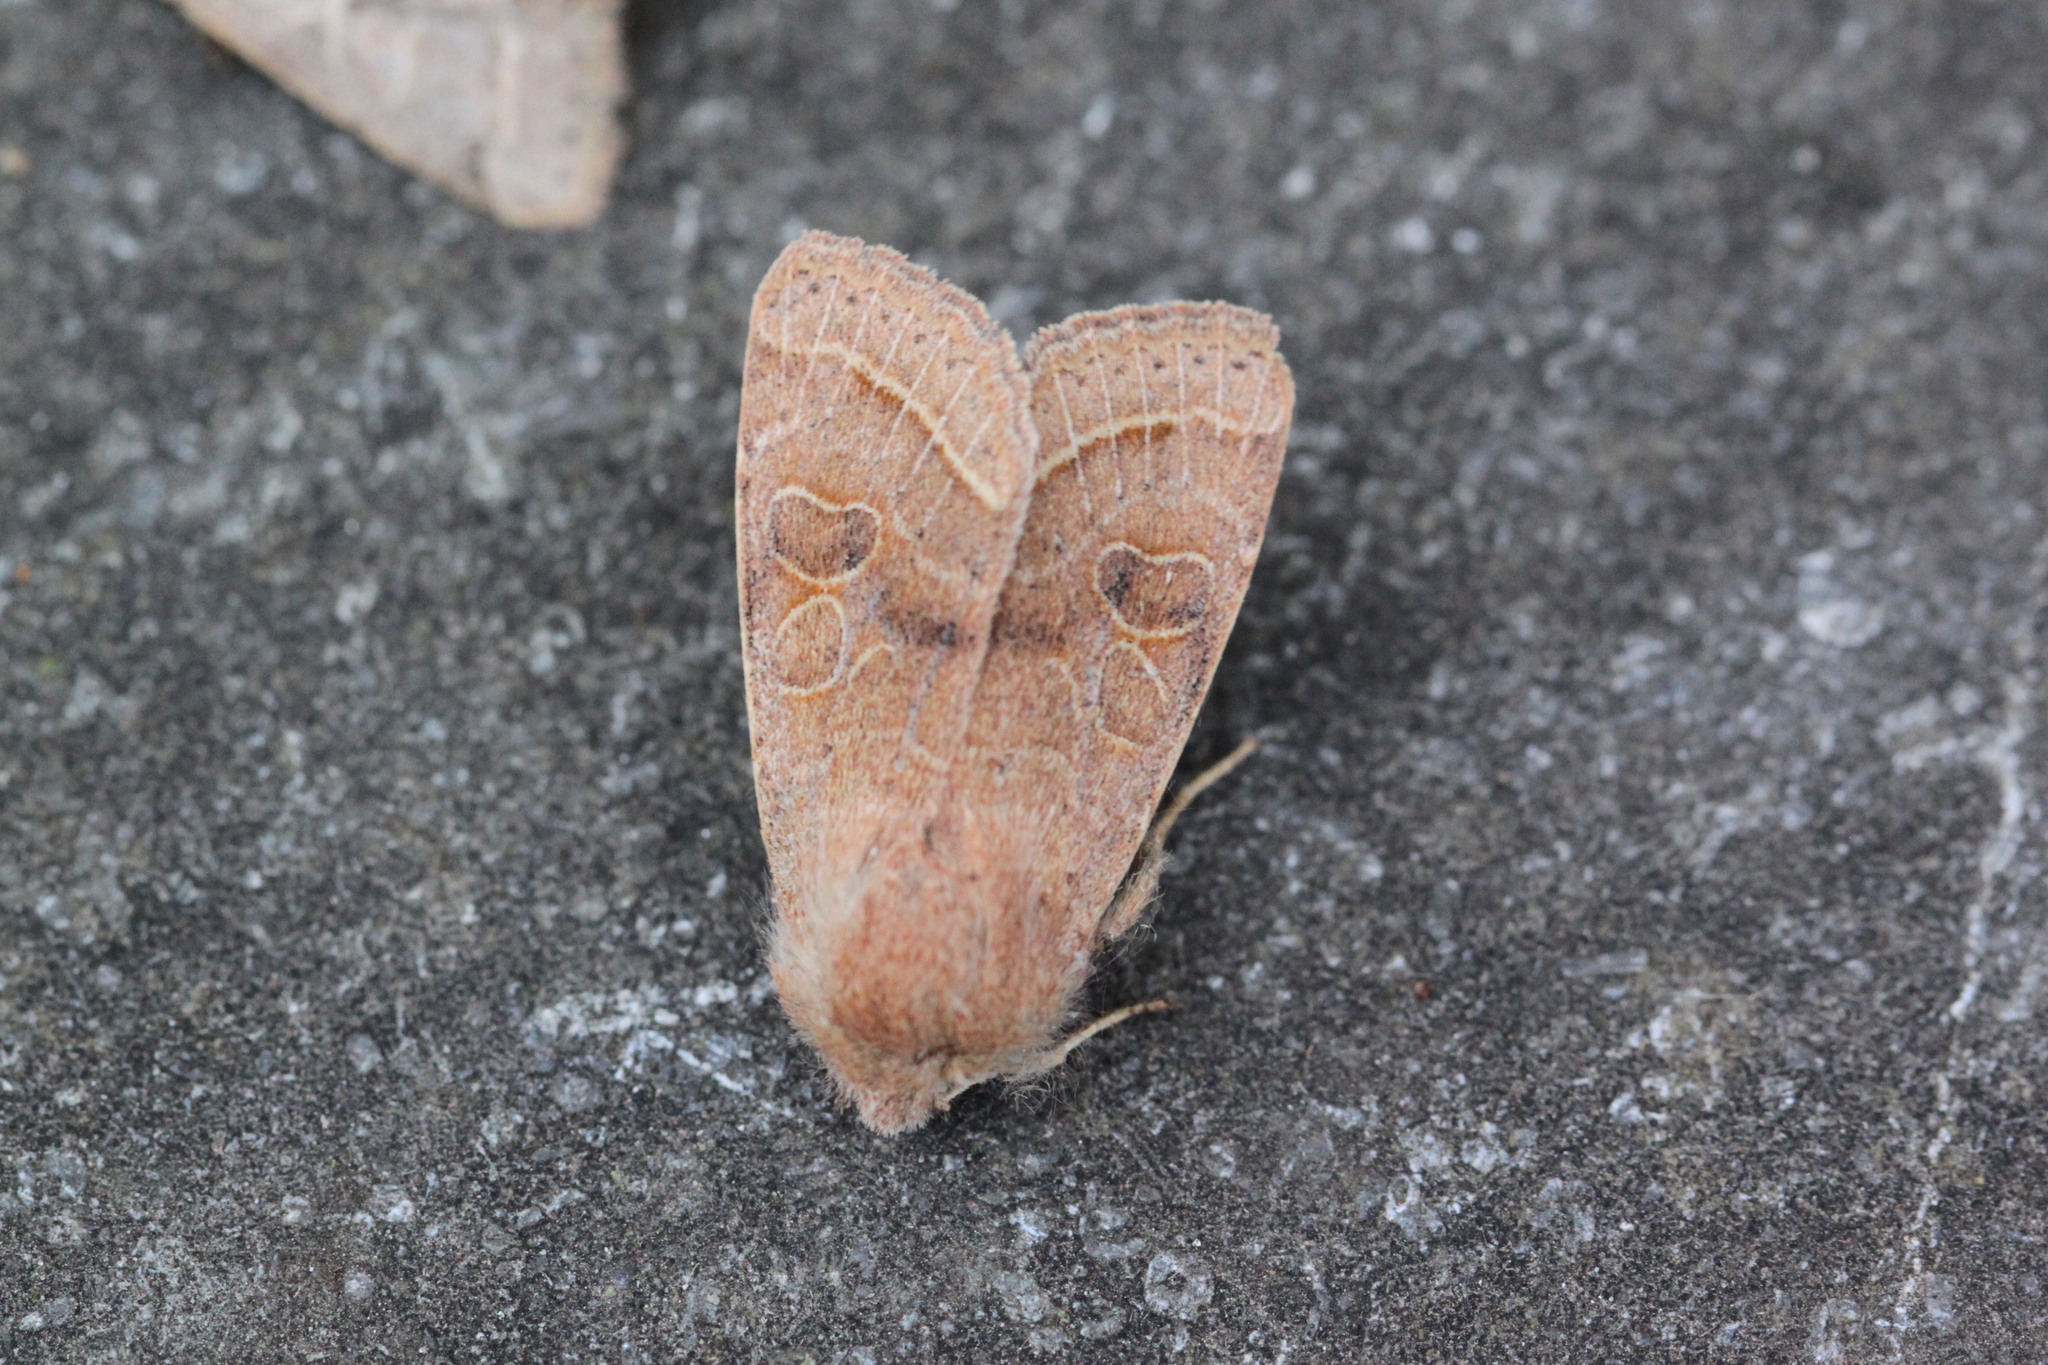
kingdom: Animalia
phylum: Arthropoda
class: Insecta
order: Lepidoptera
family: Noctuidae
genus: Orthosia
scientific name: Orthosia cerasi
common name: Common quaker
